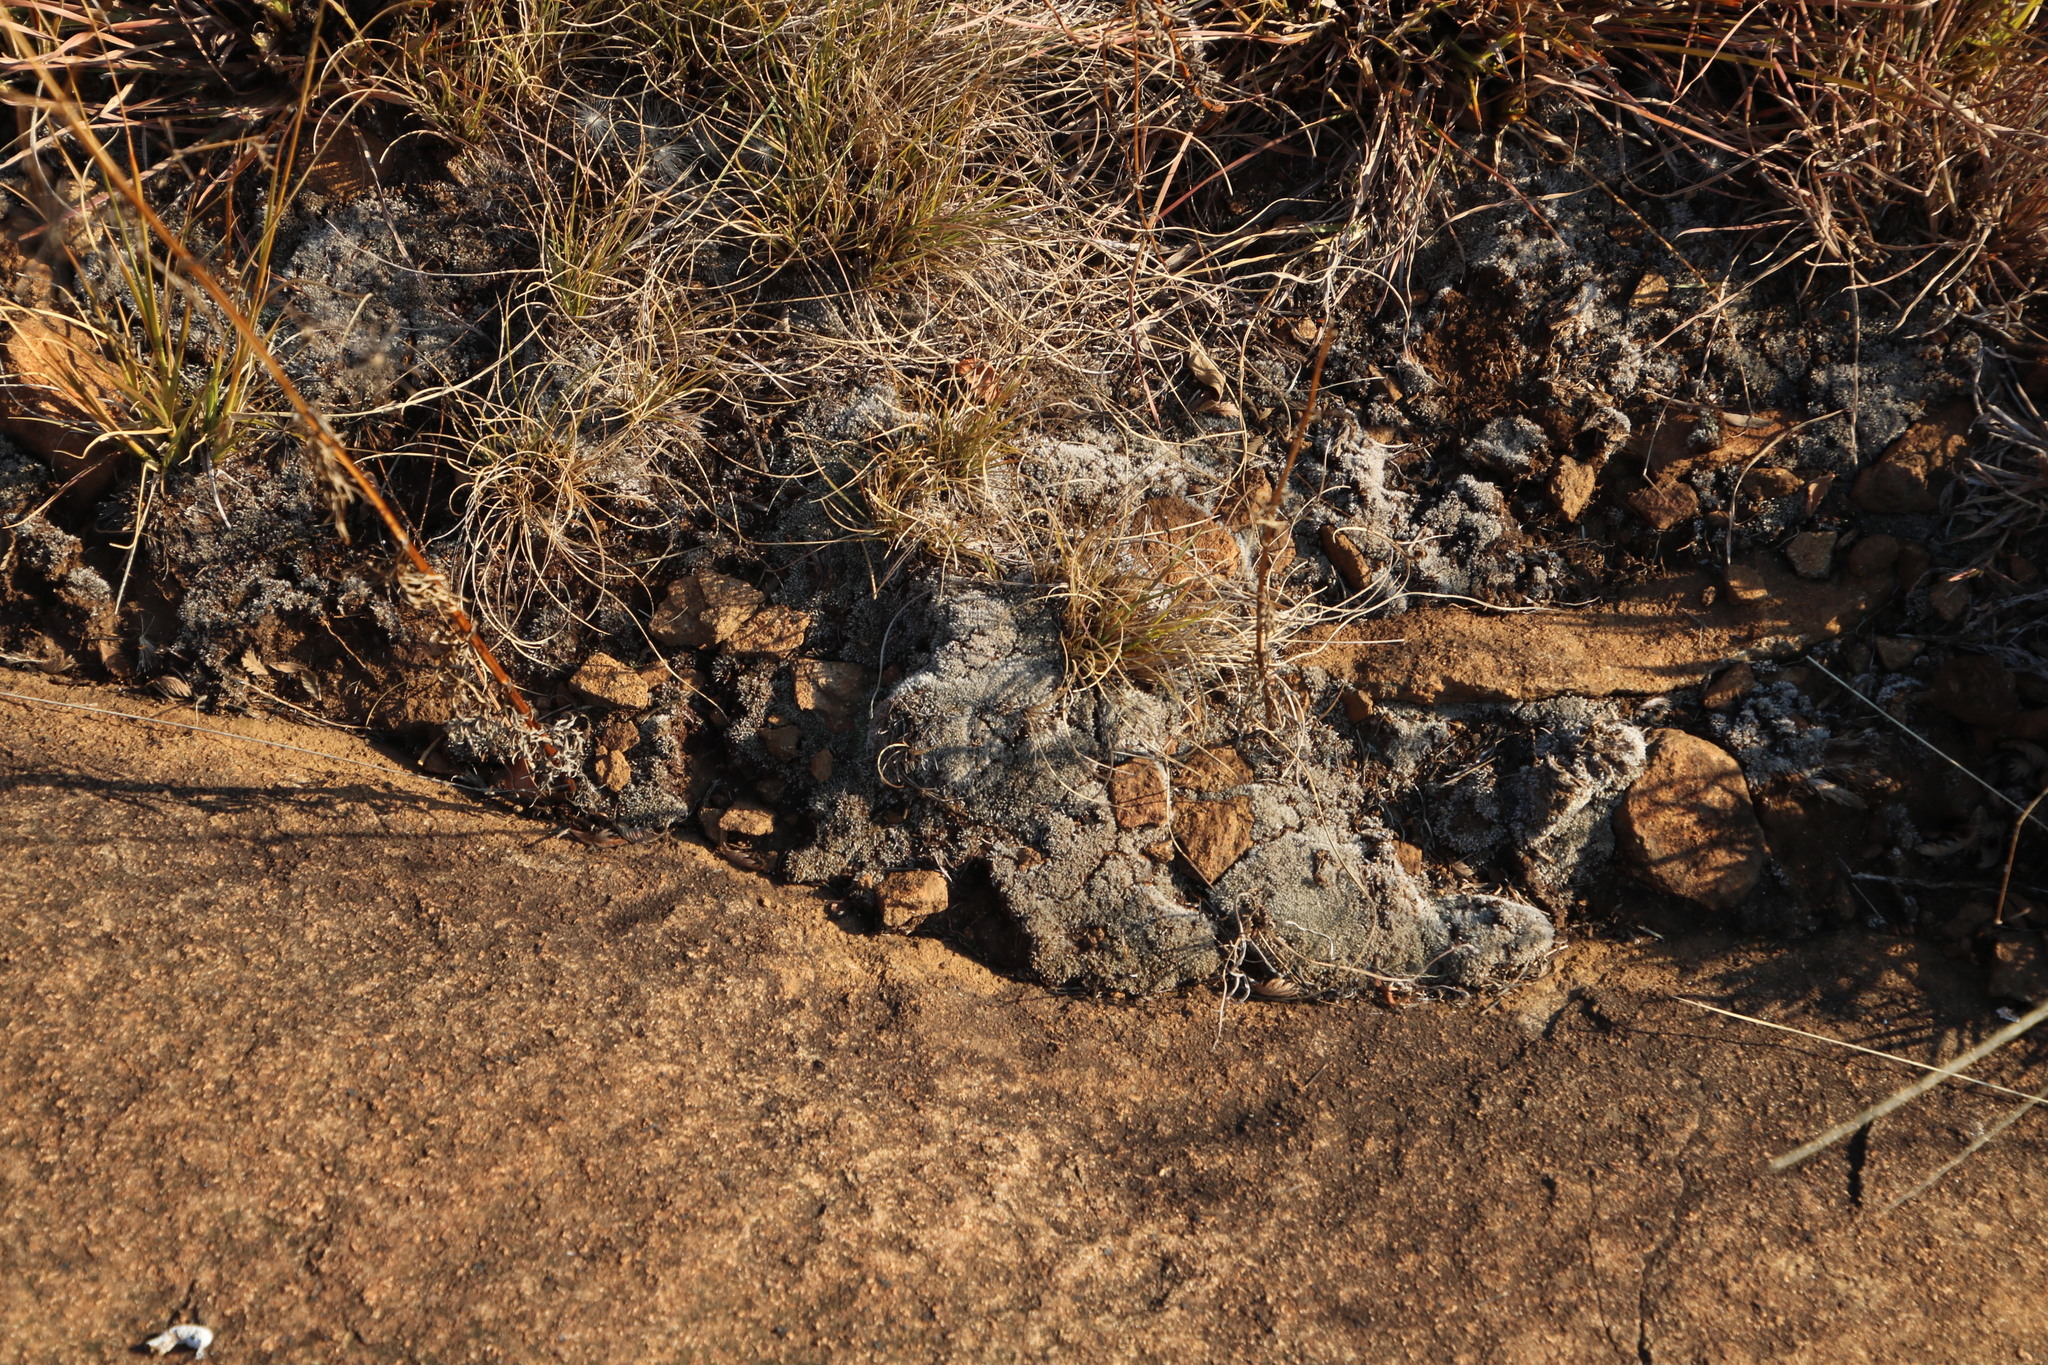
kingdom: Plantae
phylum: Bryophyta
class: Bryopsida
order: Bryales
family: Bryaceae
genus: Bryum
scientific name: Bryum argenteum
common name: Silver-moss
